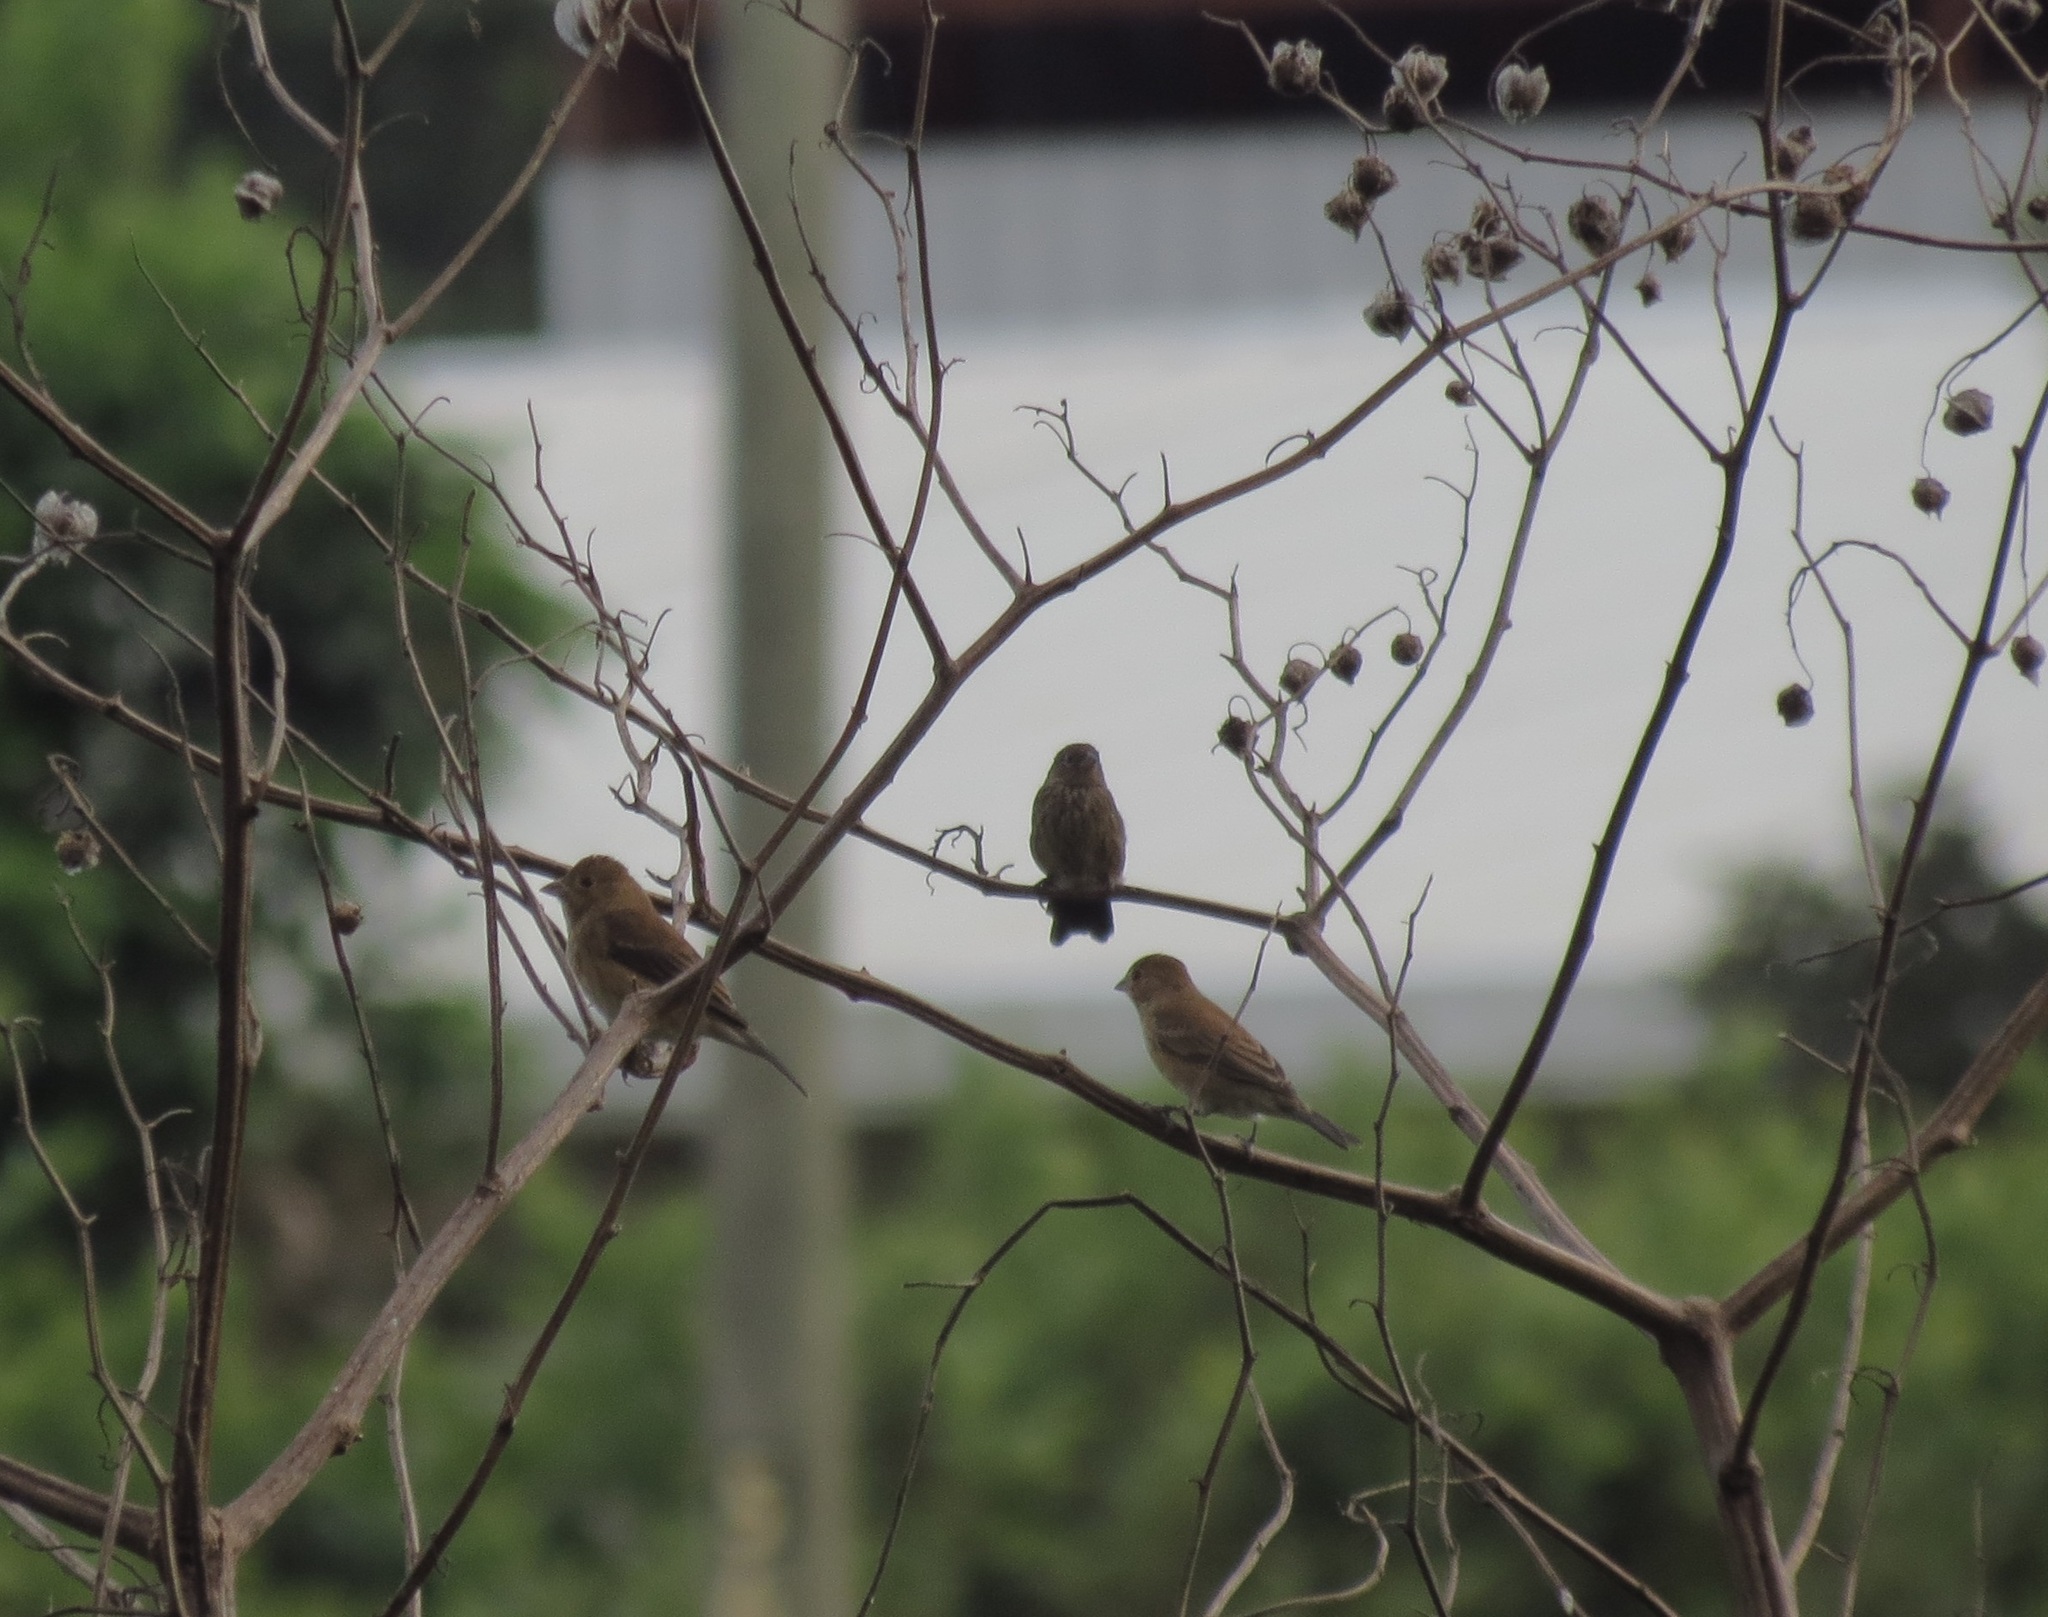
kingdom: Animalia
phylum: Chordata
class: Aves
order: Passeriformes
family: Cardinalidae
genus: Passerina
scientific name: Passerina cyanea
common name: Indigo bunting
